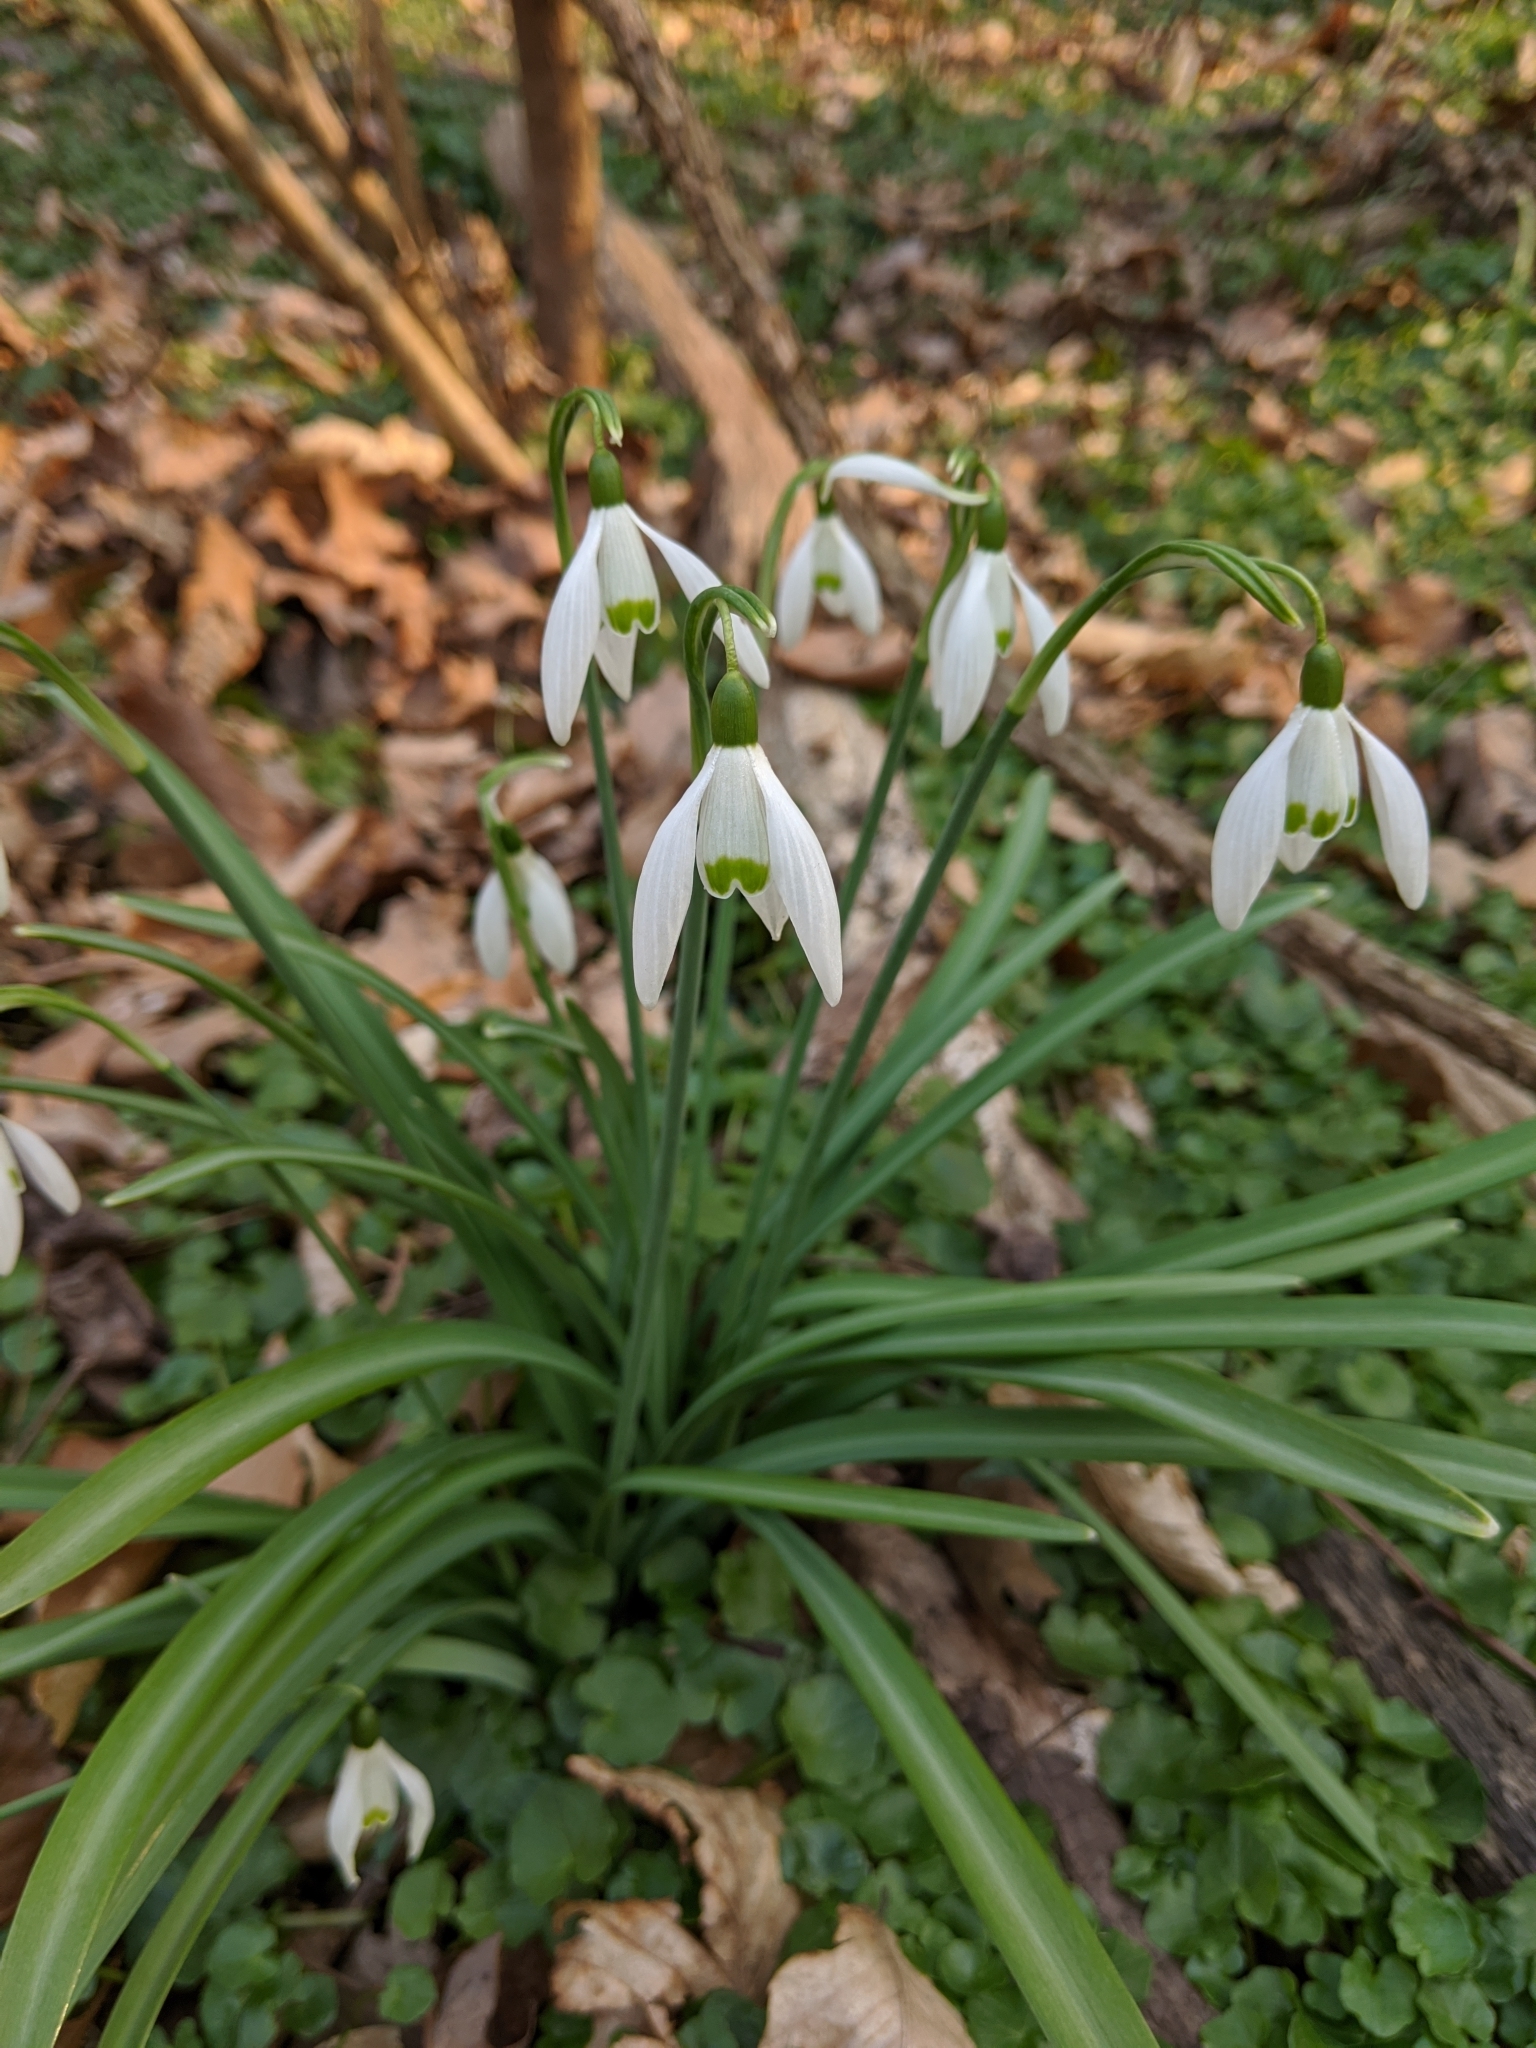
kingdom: Plantae
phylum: Tracheophyta
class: Liliopsida
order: Asparagales
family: Amaryllidaceae
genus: Galanthus
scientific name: Galanthus nivalis
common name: Snowdrop
